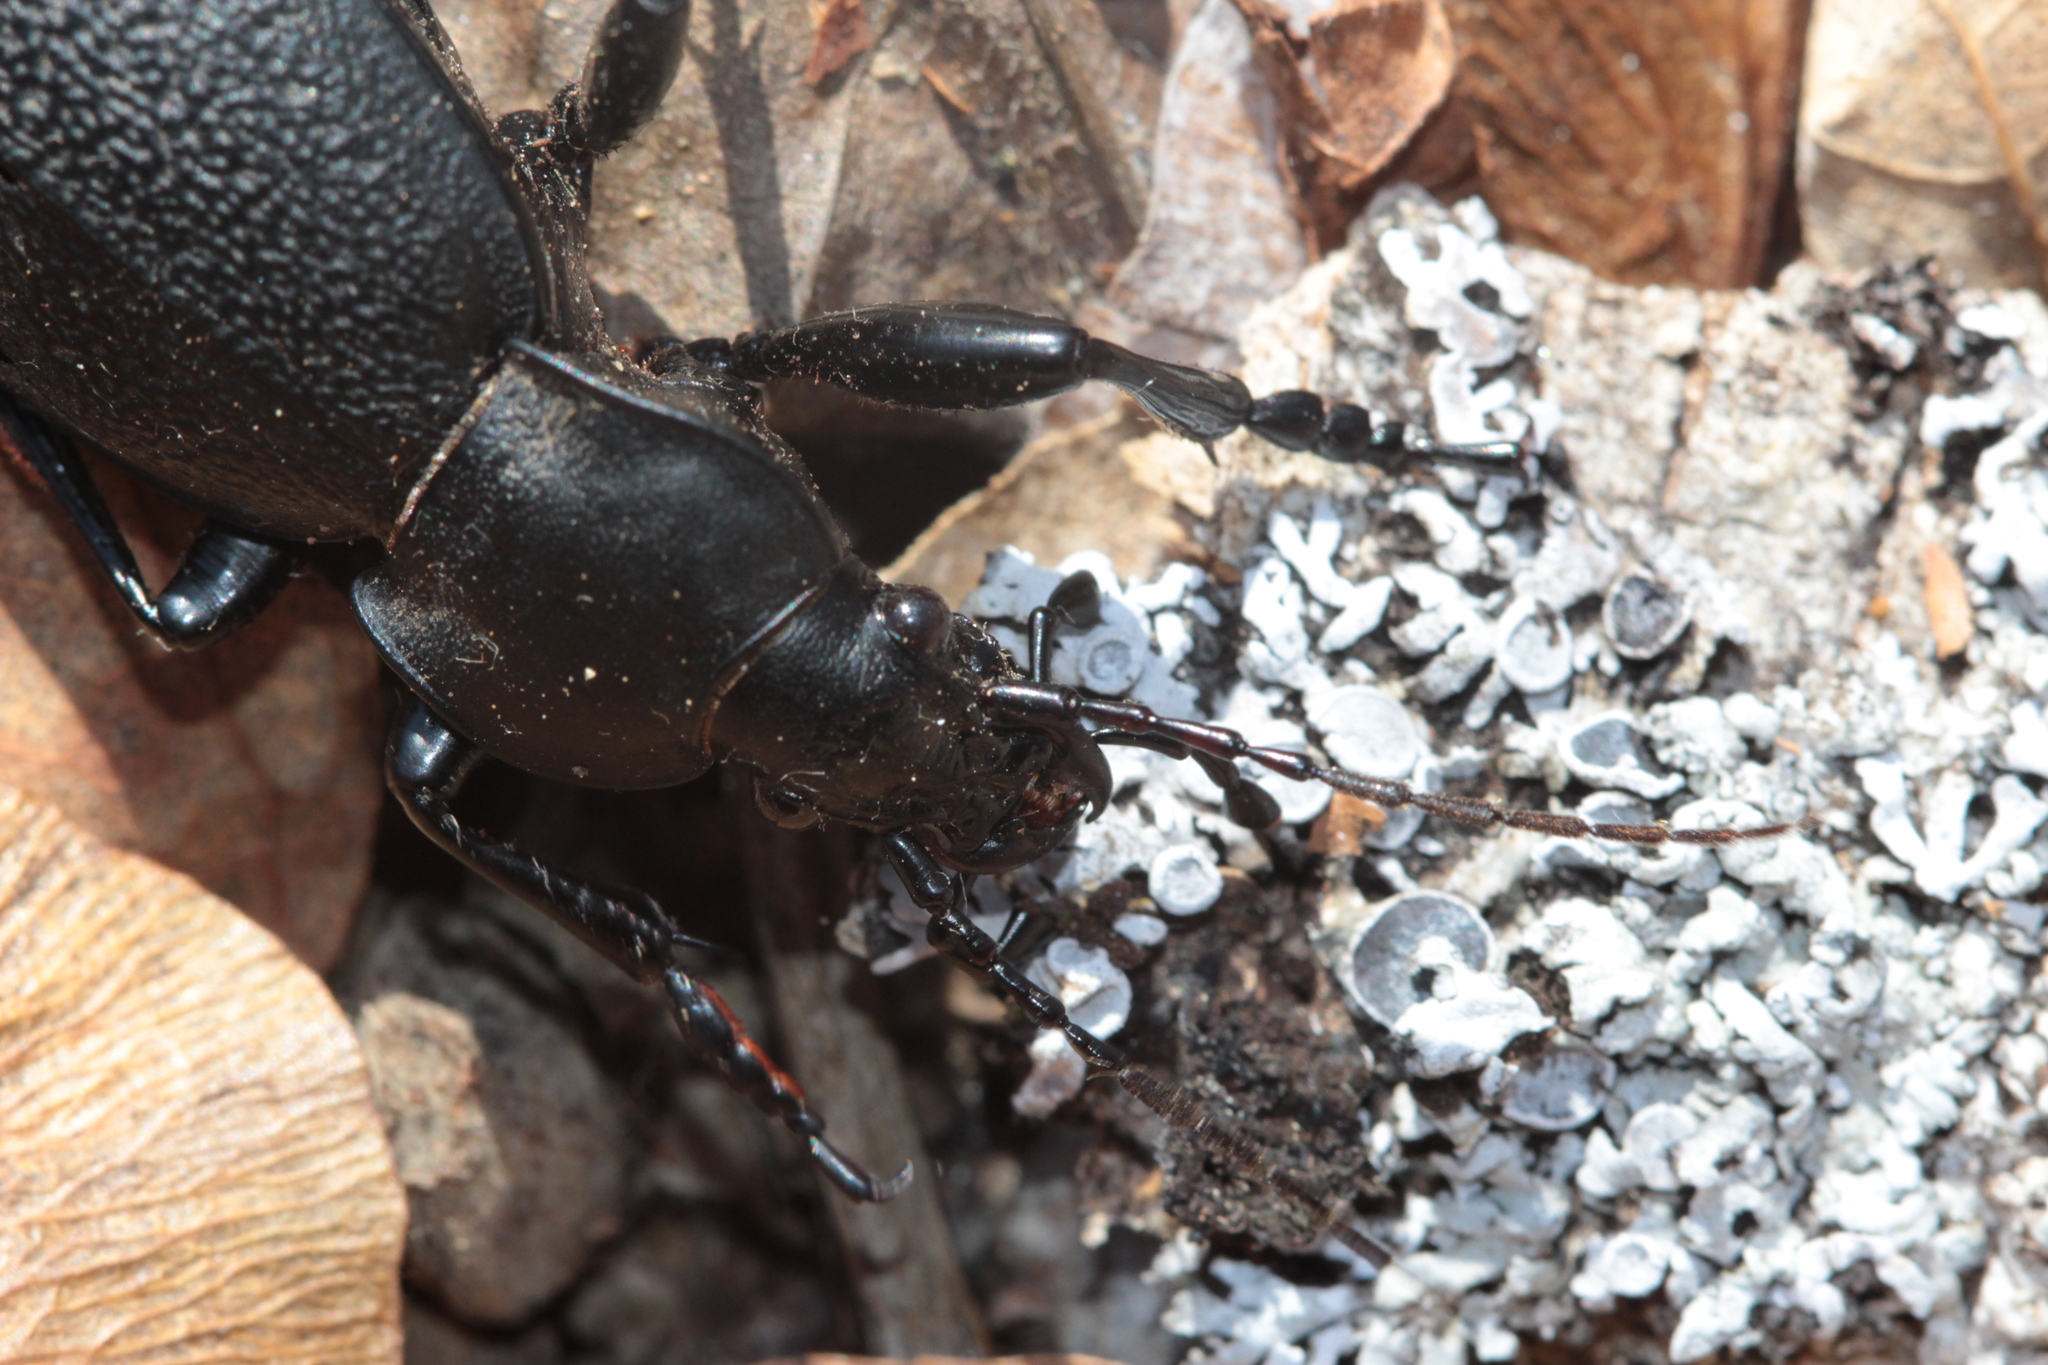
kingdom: Animalia
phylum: Arthropoda
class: Insecta
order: Coleoptera
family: Carabidae
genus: Carabus
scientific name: Carabus coriaceus
